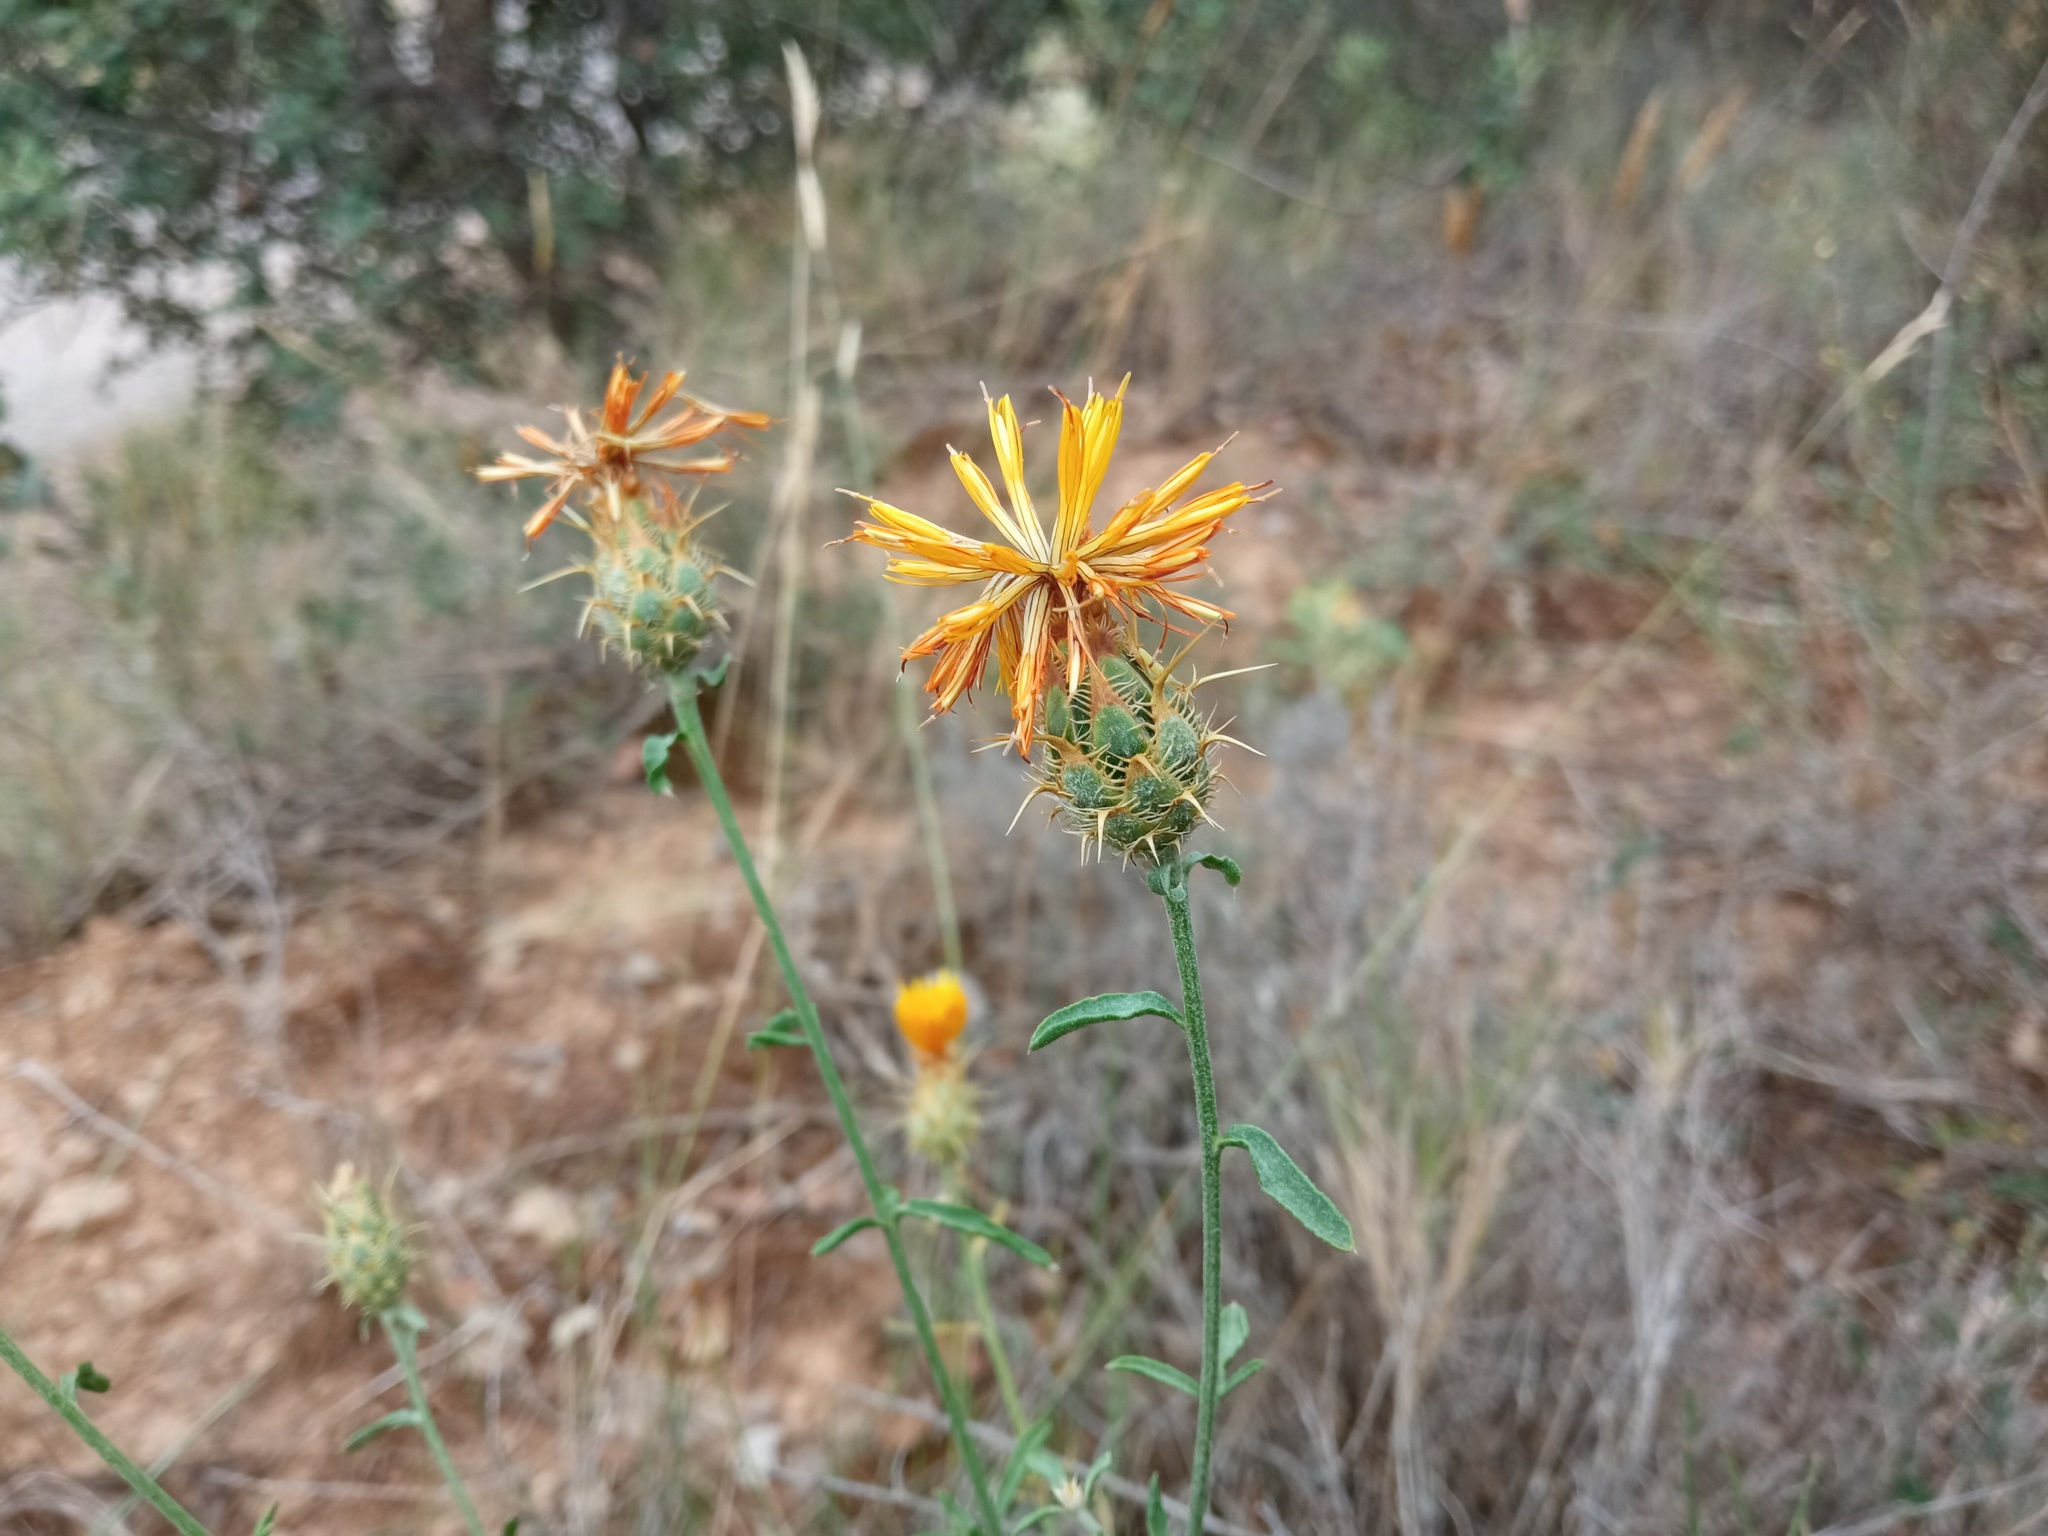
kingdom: Plantae
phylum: Tracheophyta
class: Magnoliopsida
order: Asterales
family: Asteraceae
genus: Centaurea
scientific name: Centaurea ornata
